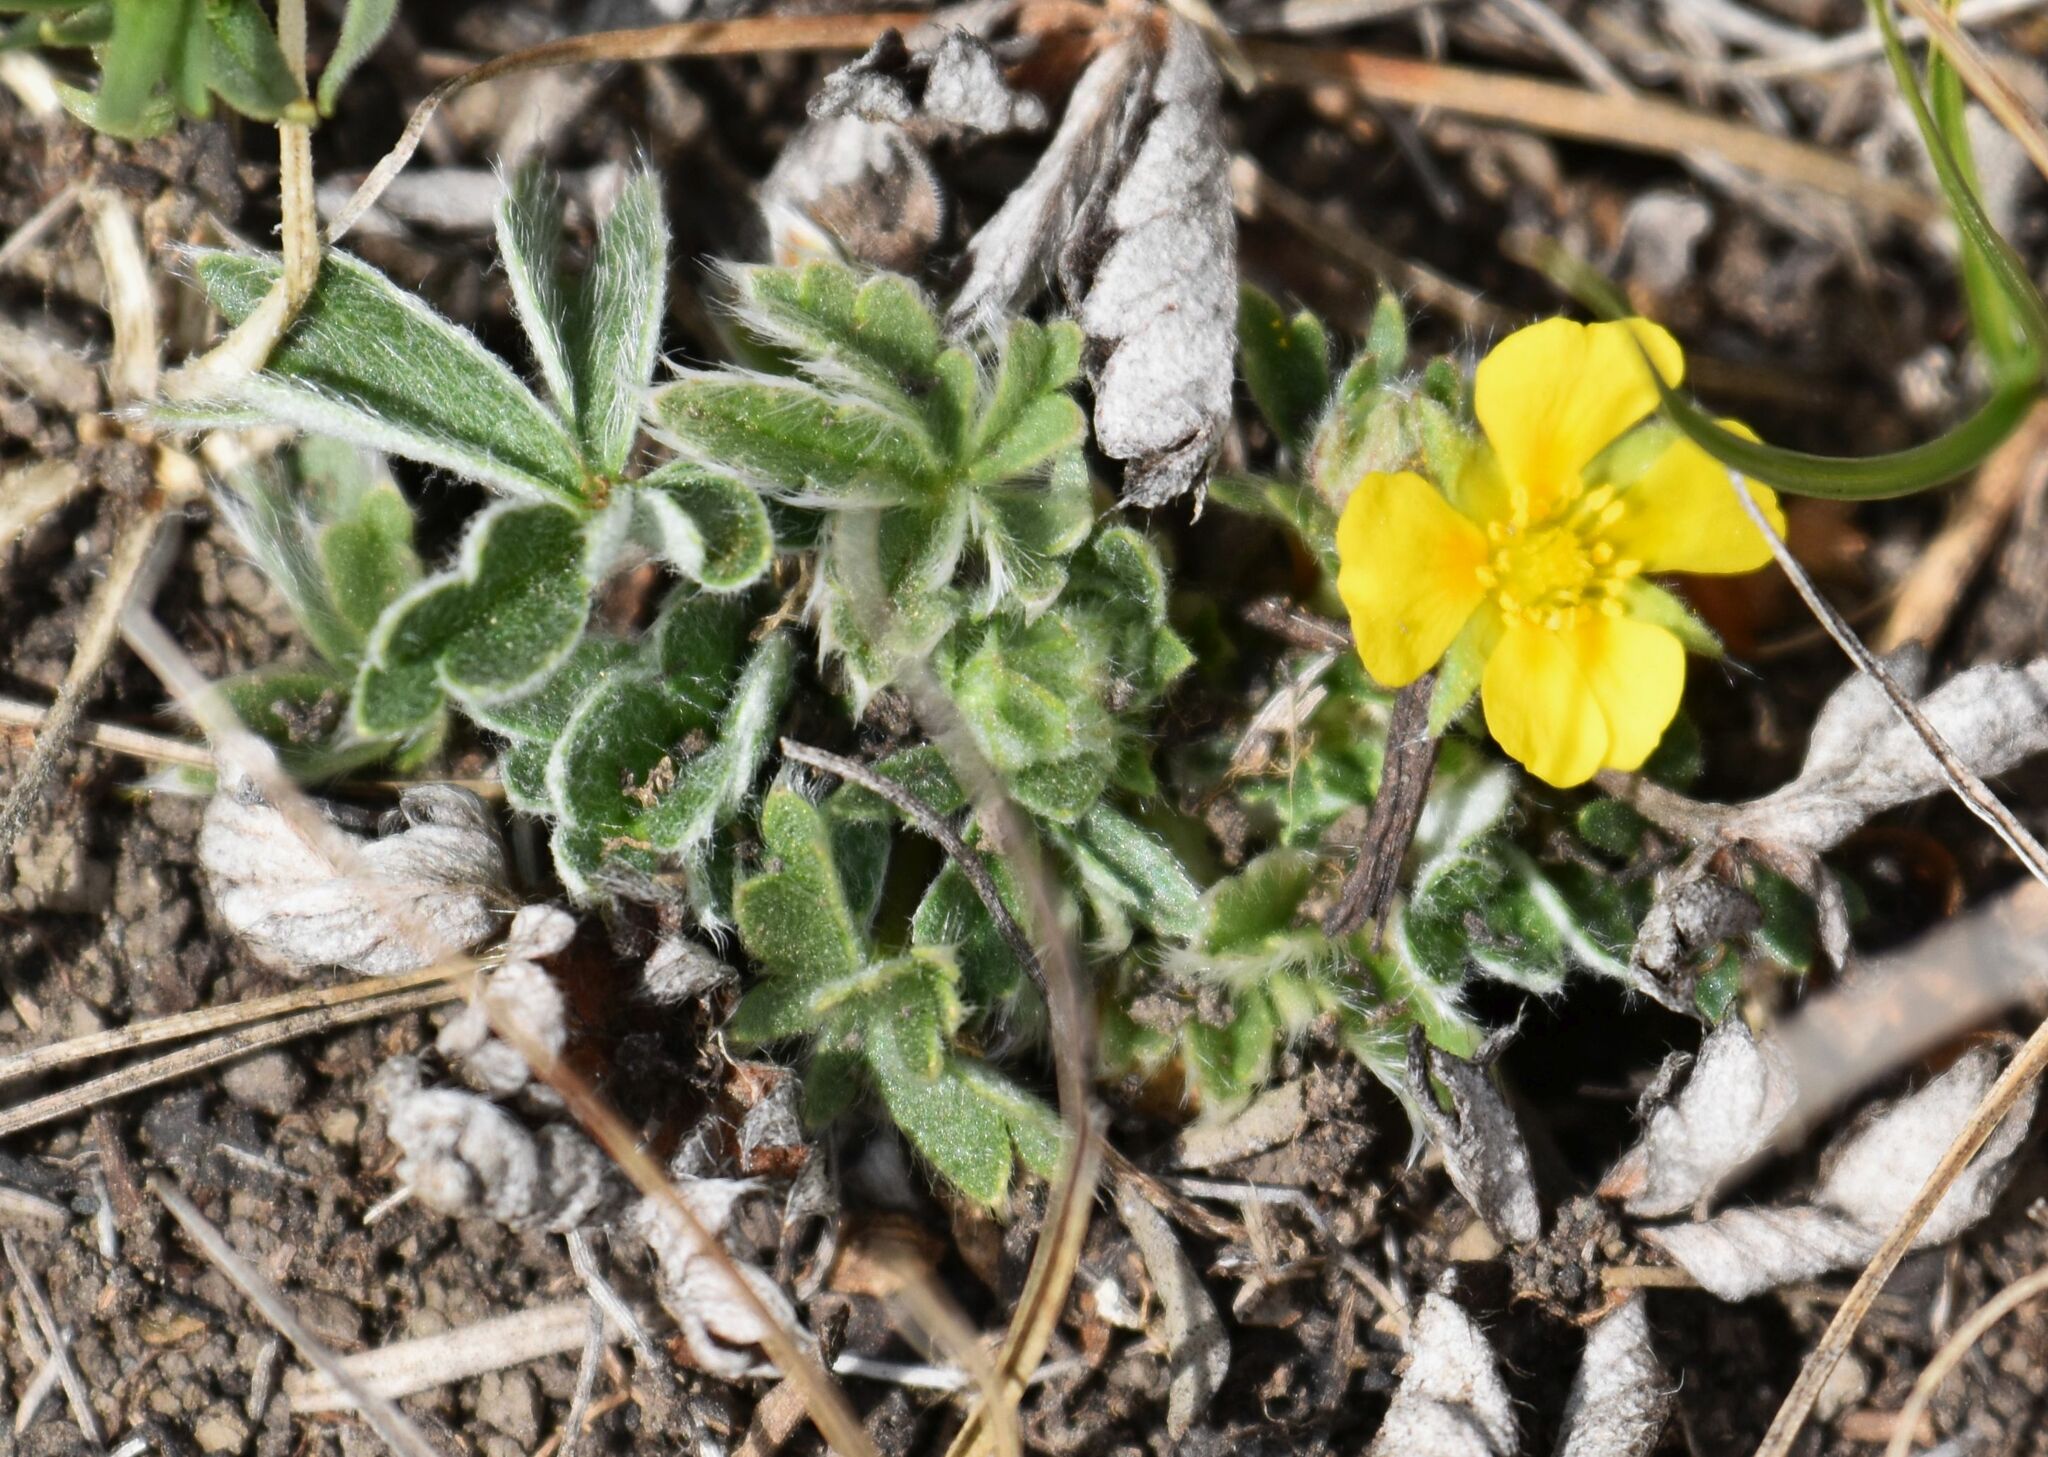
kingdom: Plantae
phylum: Tracheophyta
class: Magnoliopsida
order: Rosales
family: Rosaceae
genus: Potentilla
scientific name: Potentilla concinna
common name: Early cinquefoil
